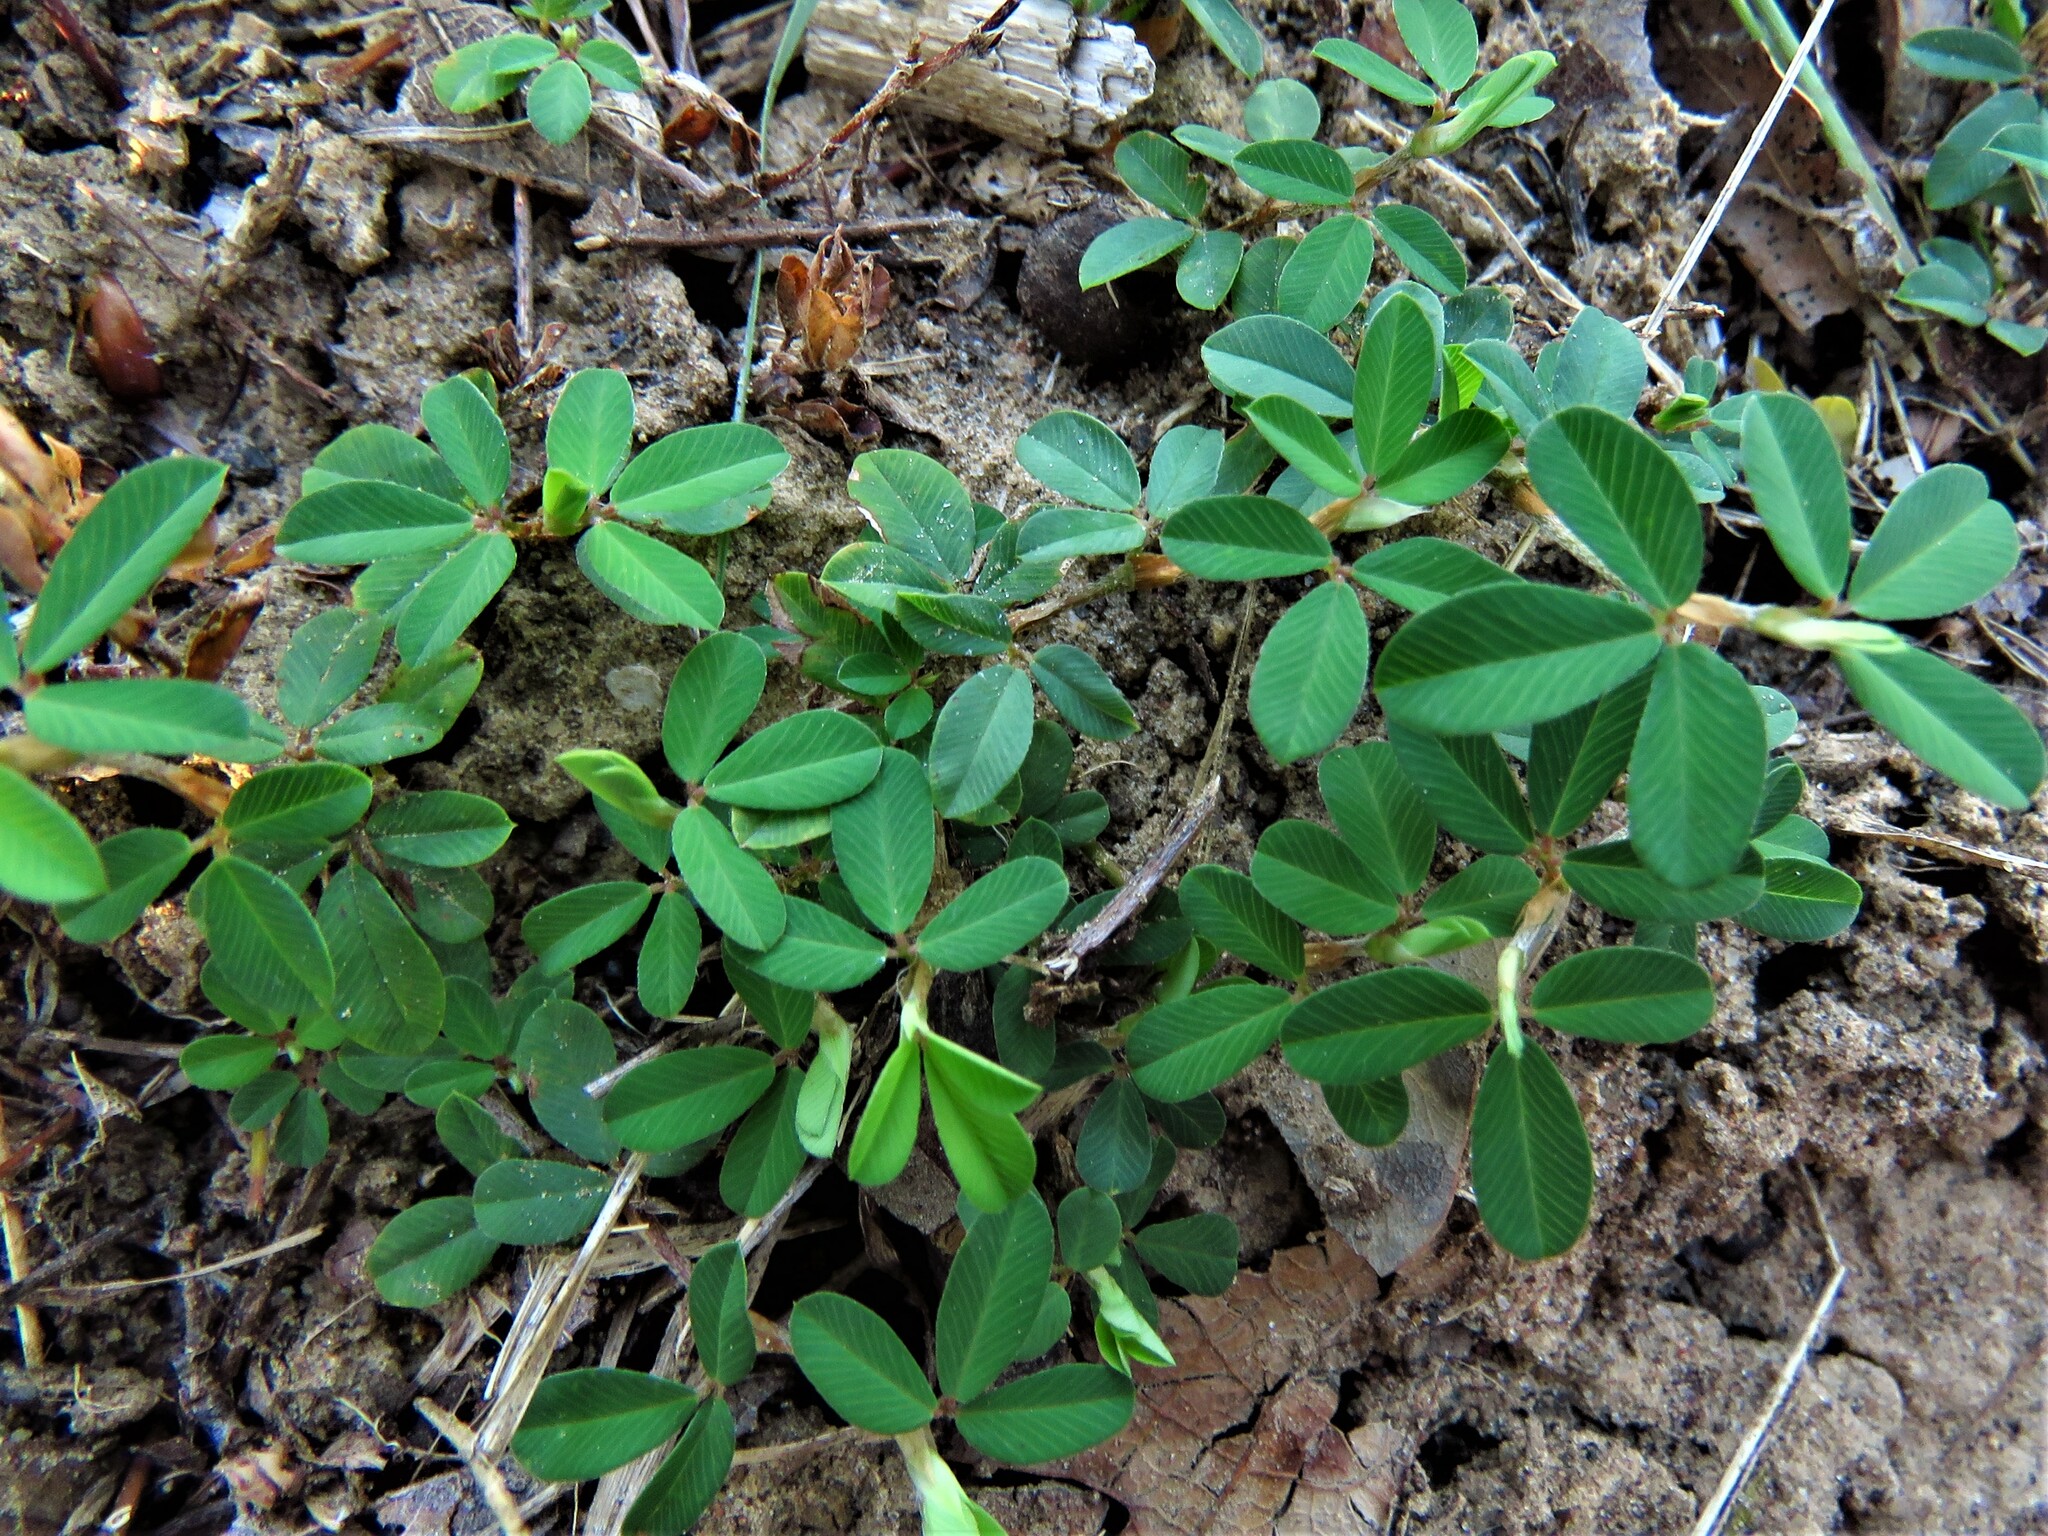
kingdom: Plantae
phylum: Tracheophyta
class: Magnoliopsida
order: Fabales
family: Fabaceae
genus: Kummerowia
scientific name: Kummerowia striata
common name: Japanese clover
